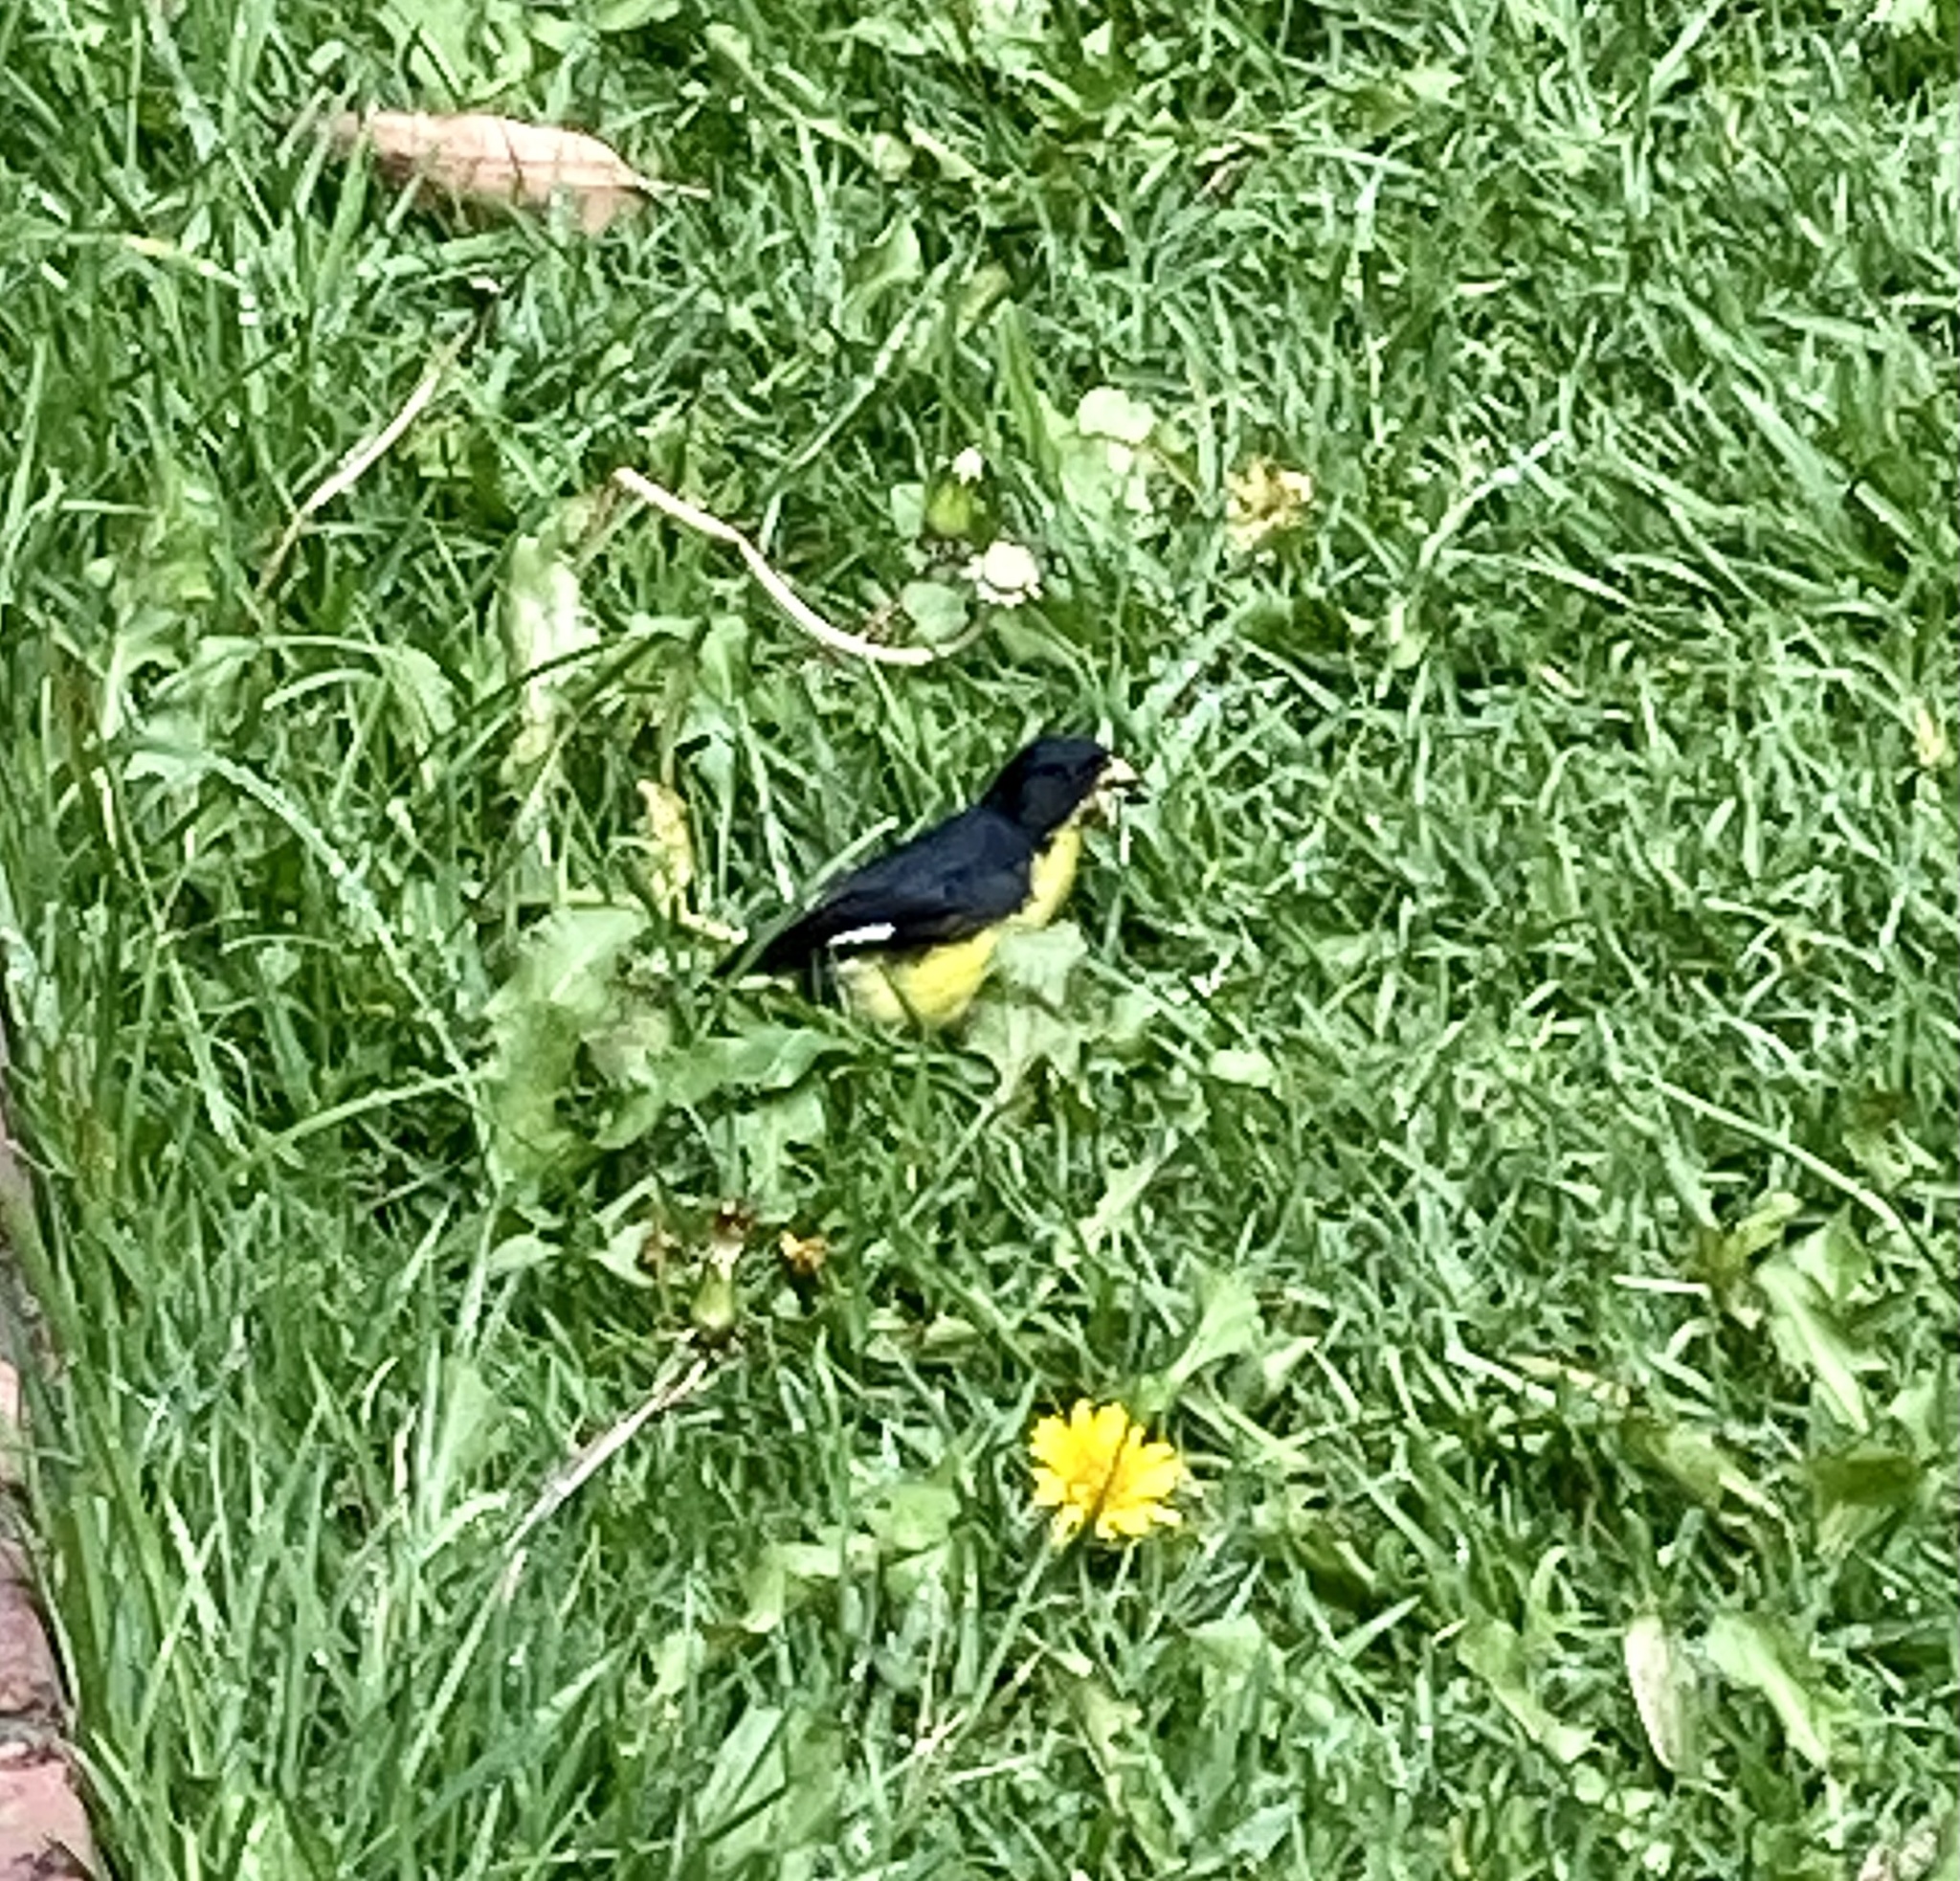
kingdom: Animalia
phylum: Chordata
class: Aves
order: Passeriformes
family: Fringillidae
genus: Spinus
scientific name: Spinus psaltria
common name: Lesser goldfinch
